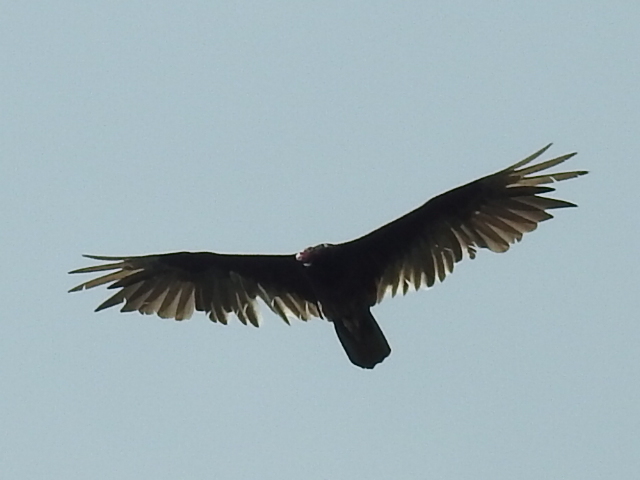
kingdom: Animalia
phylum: Chordata
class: Aves
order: Accipitriformes
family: Cathartidae
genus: Cathartes
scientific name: Cathartes aura
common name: Turkey vulture
